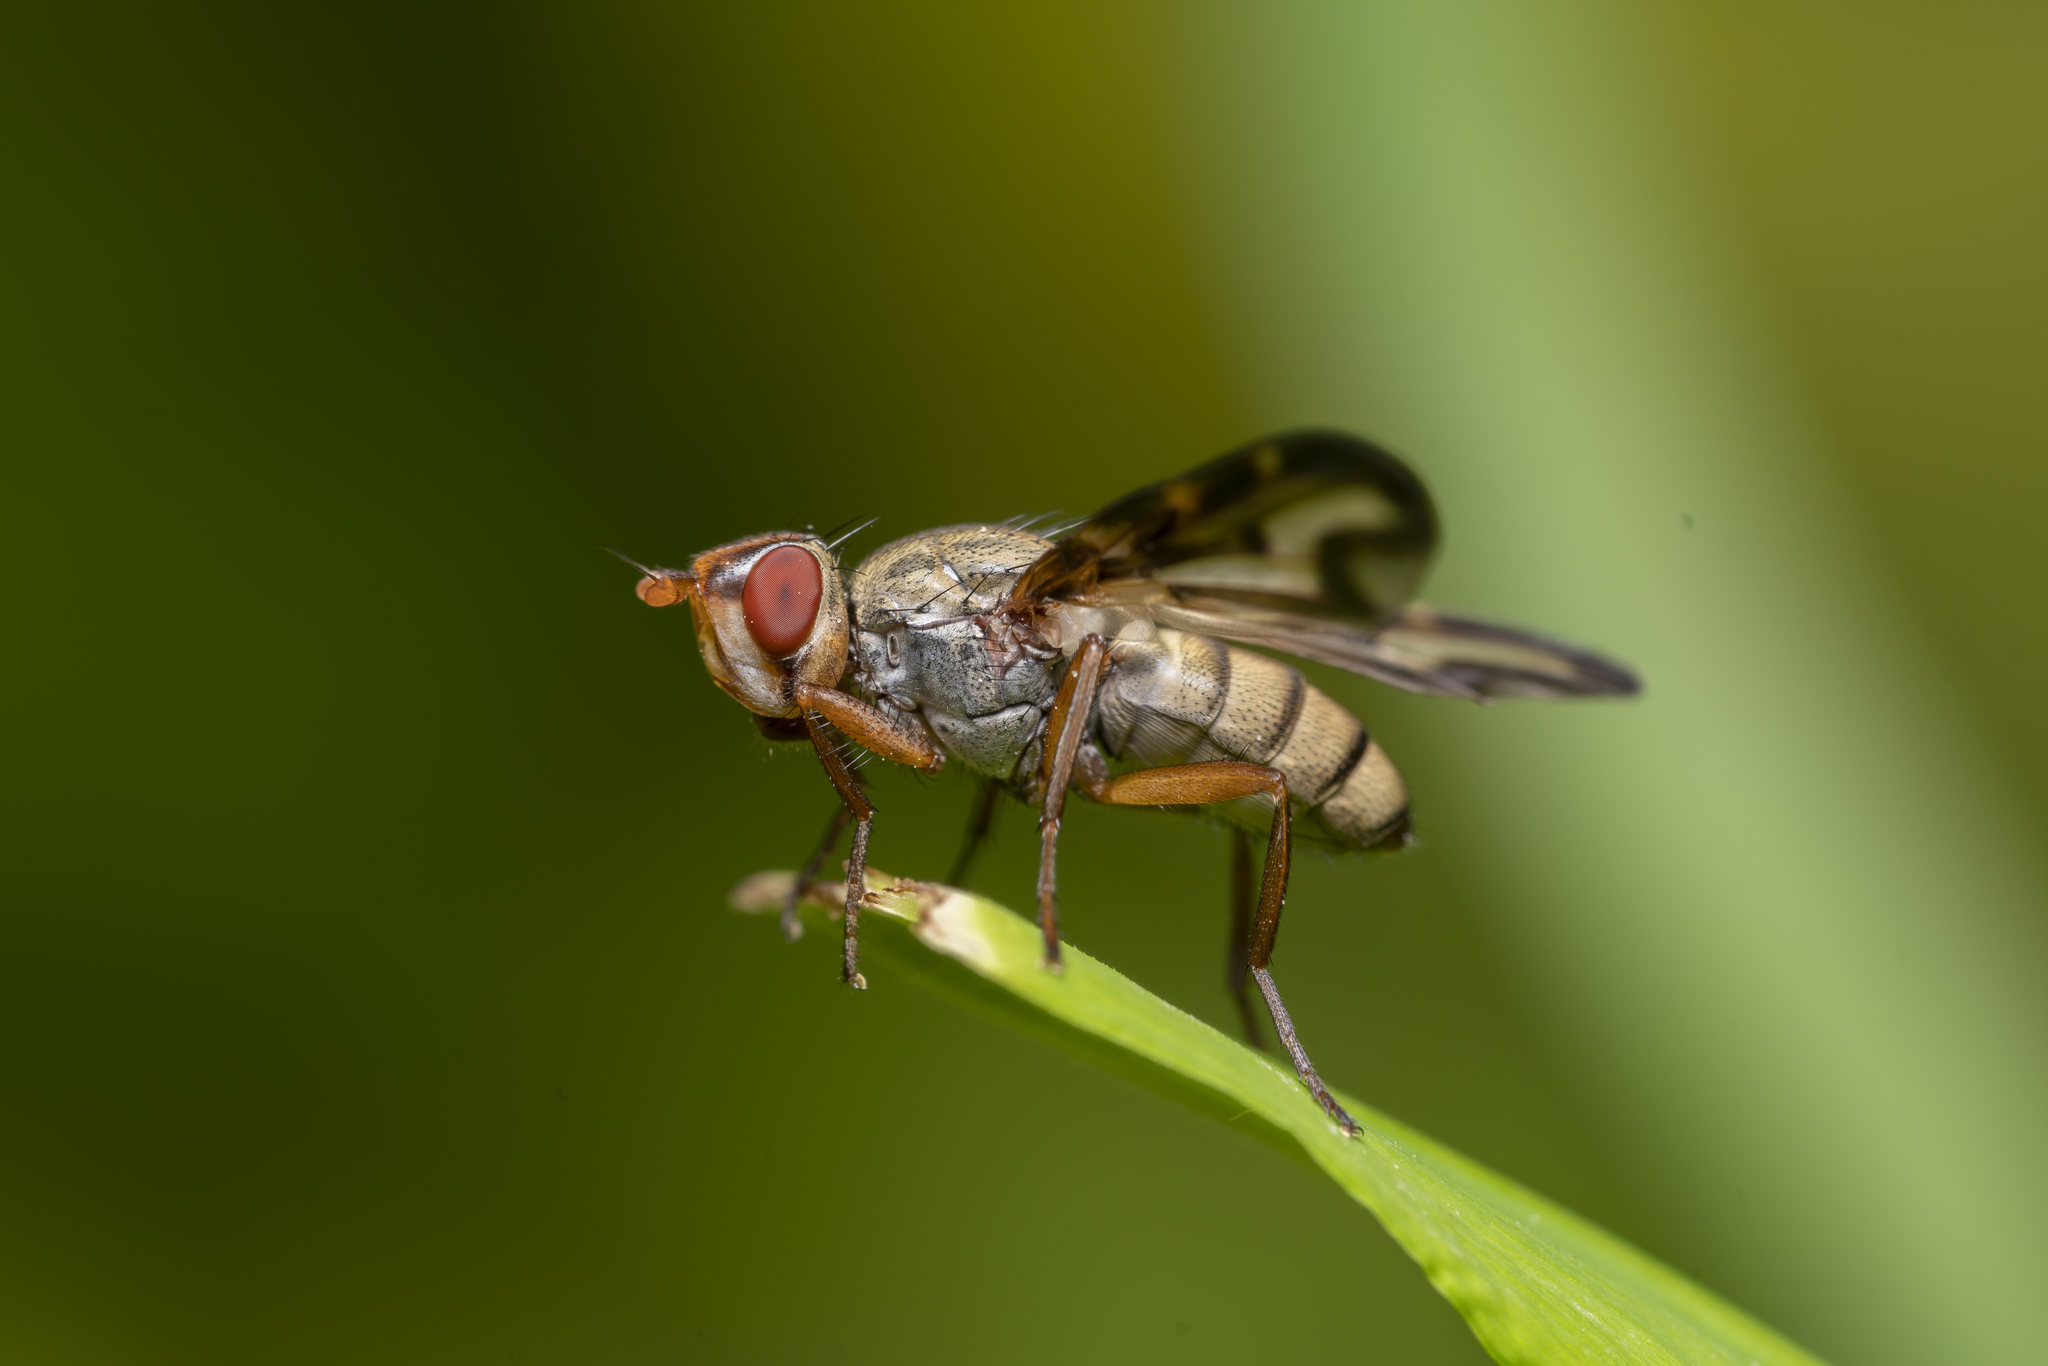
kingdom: Animalia
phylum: Arthropoda
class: Insecta
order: Diptera
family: Ulidiidae
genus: Otites
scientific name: Otites lamed
